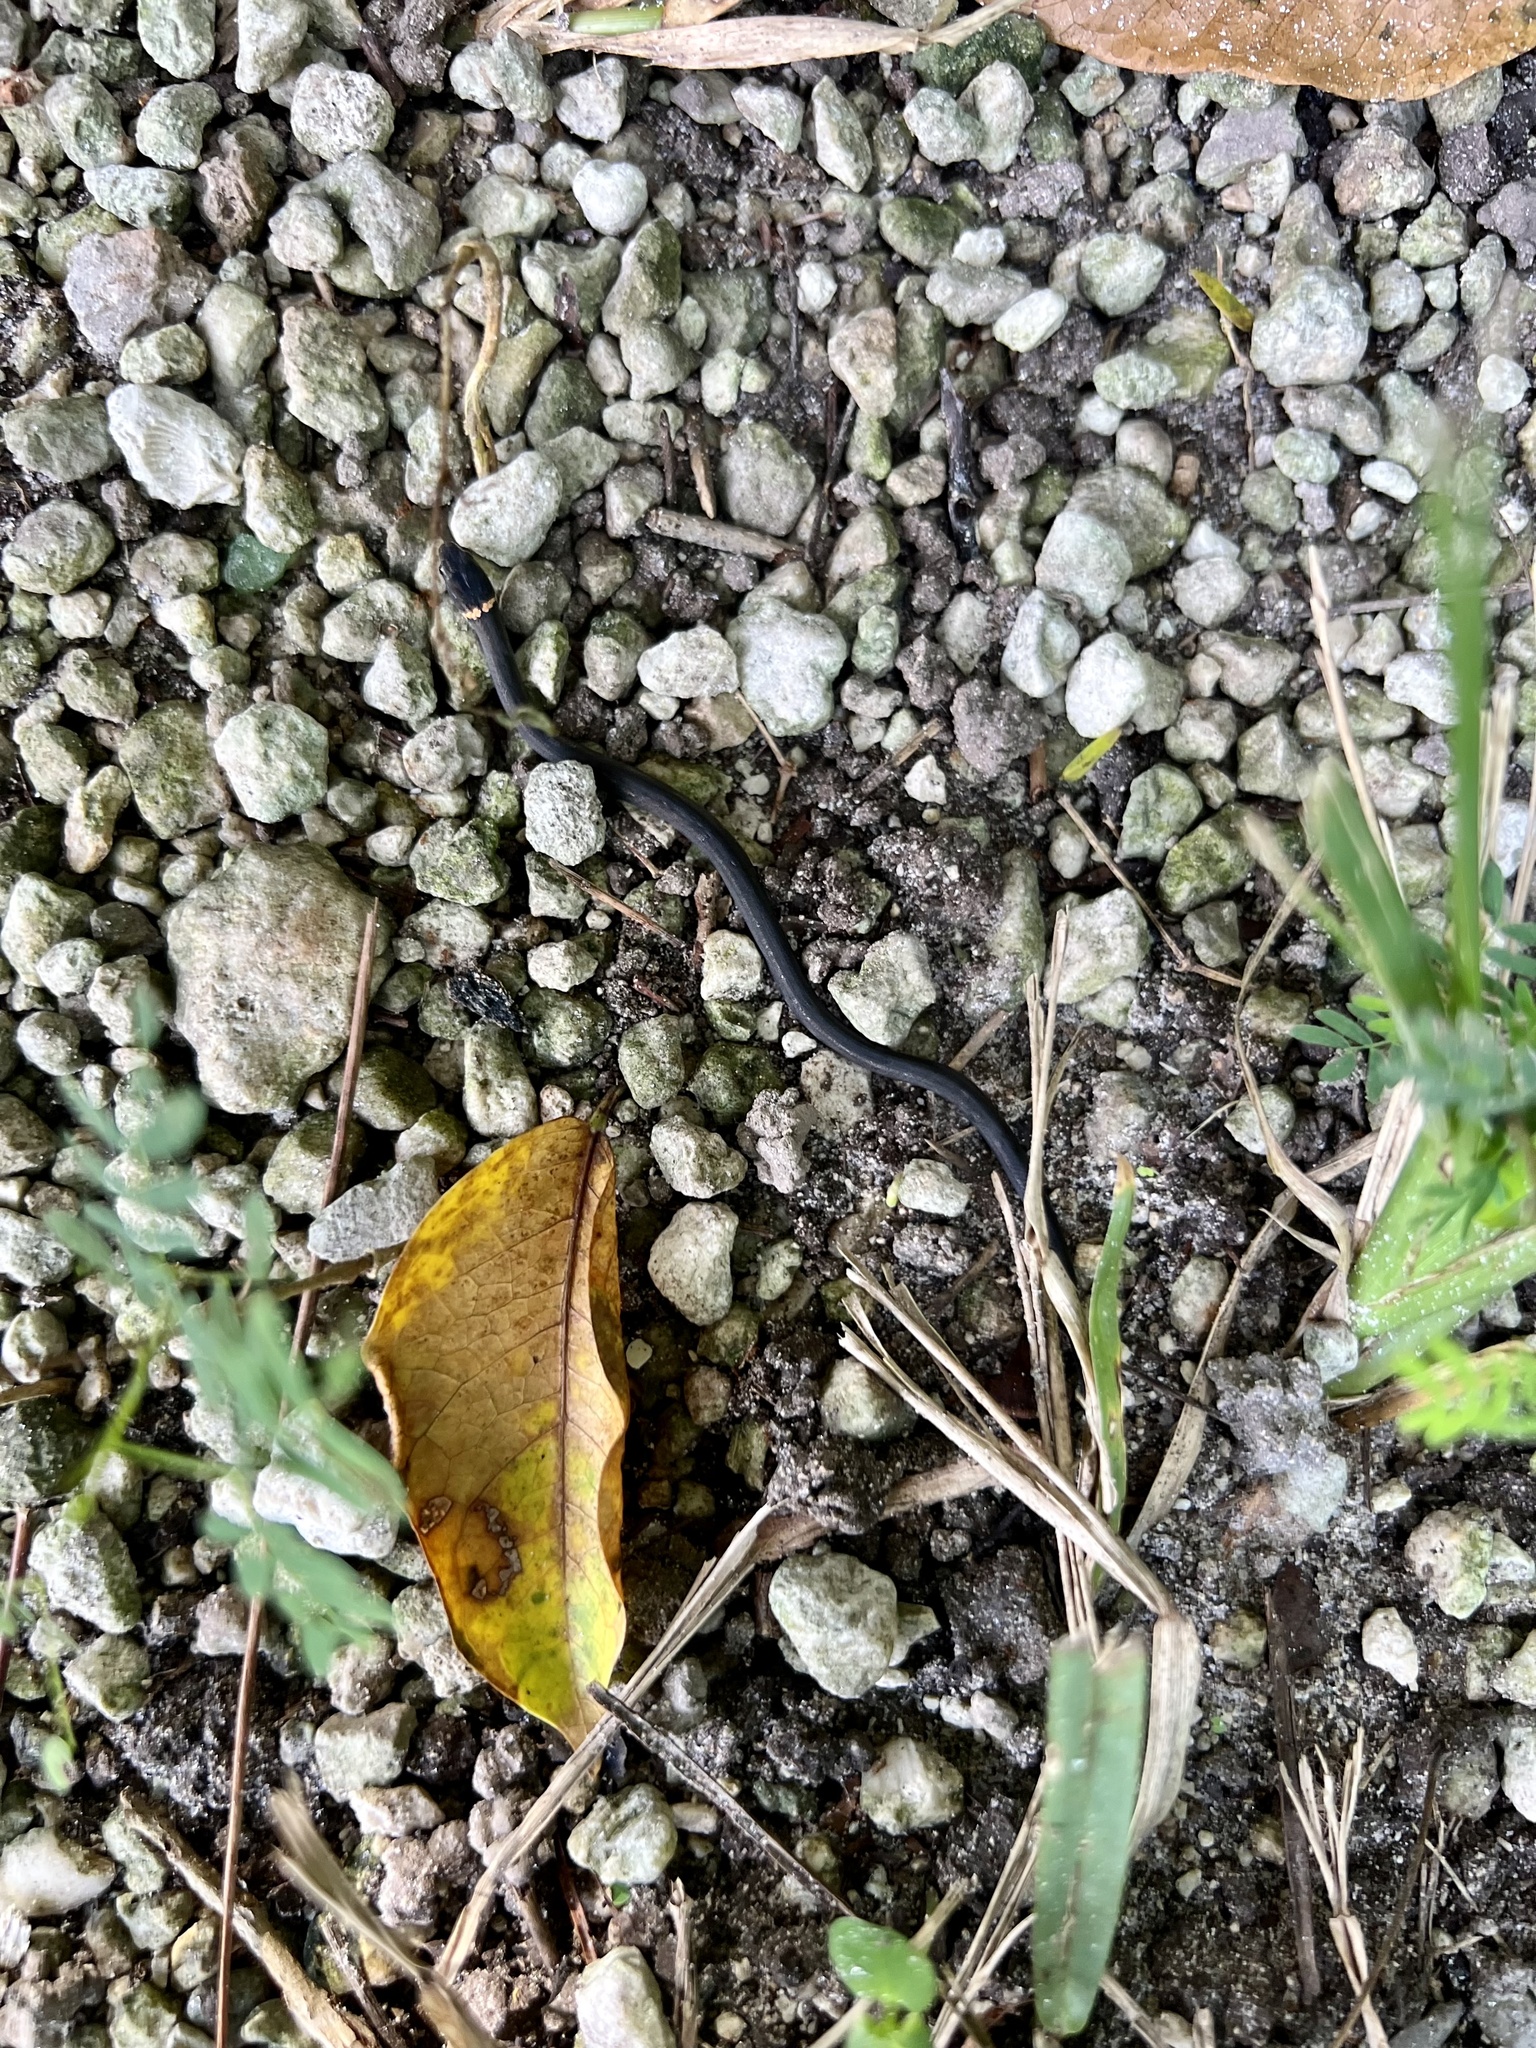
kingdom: Animalia
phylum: Chordata
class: Squamata
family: Colubridae
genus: Diadophis
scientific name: Diadophis punctatus
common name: Ringneck snake
